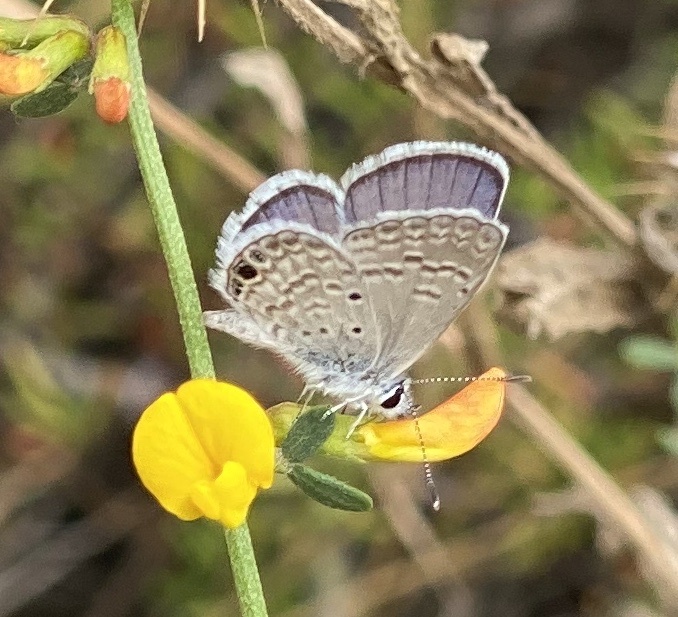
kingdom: Animalia
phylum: Arthropoda
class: Insecta
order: Lepidoptera
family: Lycaenidae
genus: Hemiargus
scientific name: Hemiargus ceraunus
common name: Ceraunus blue
